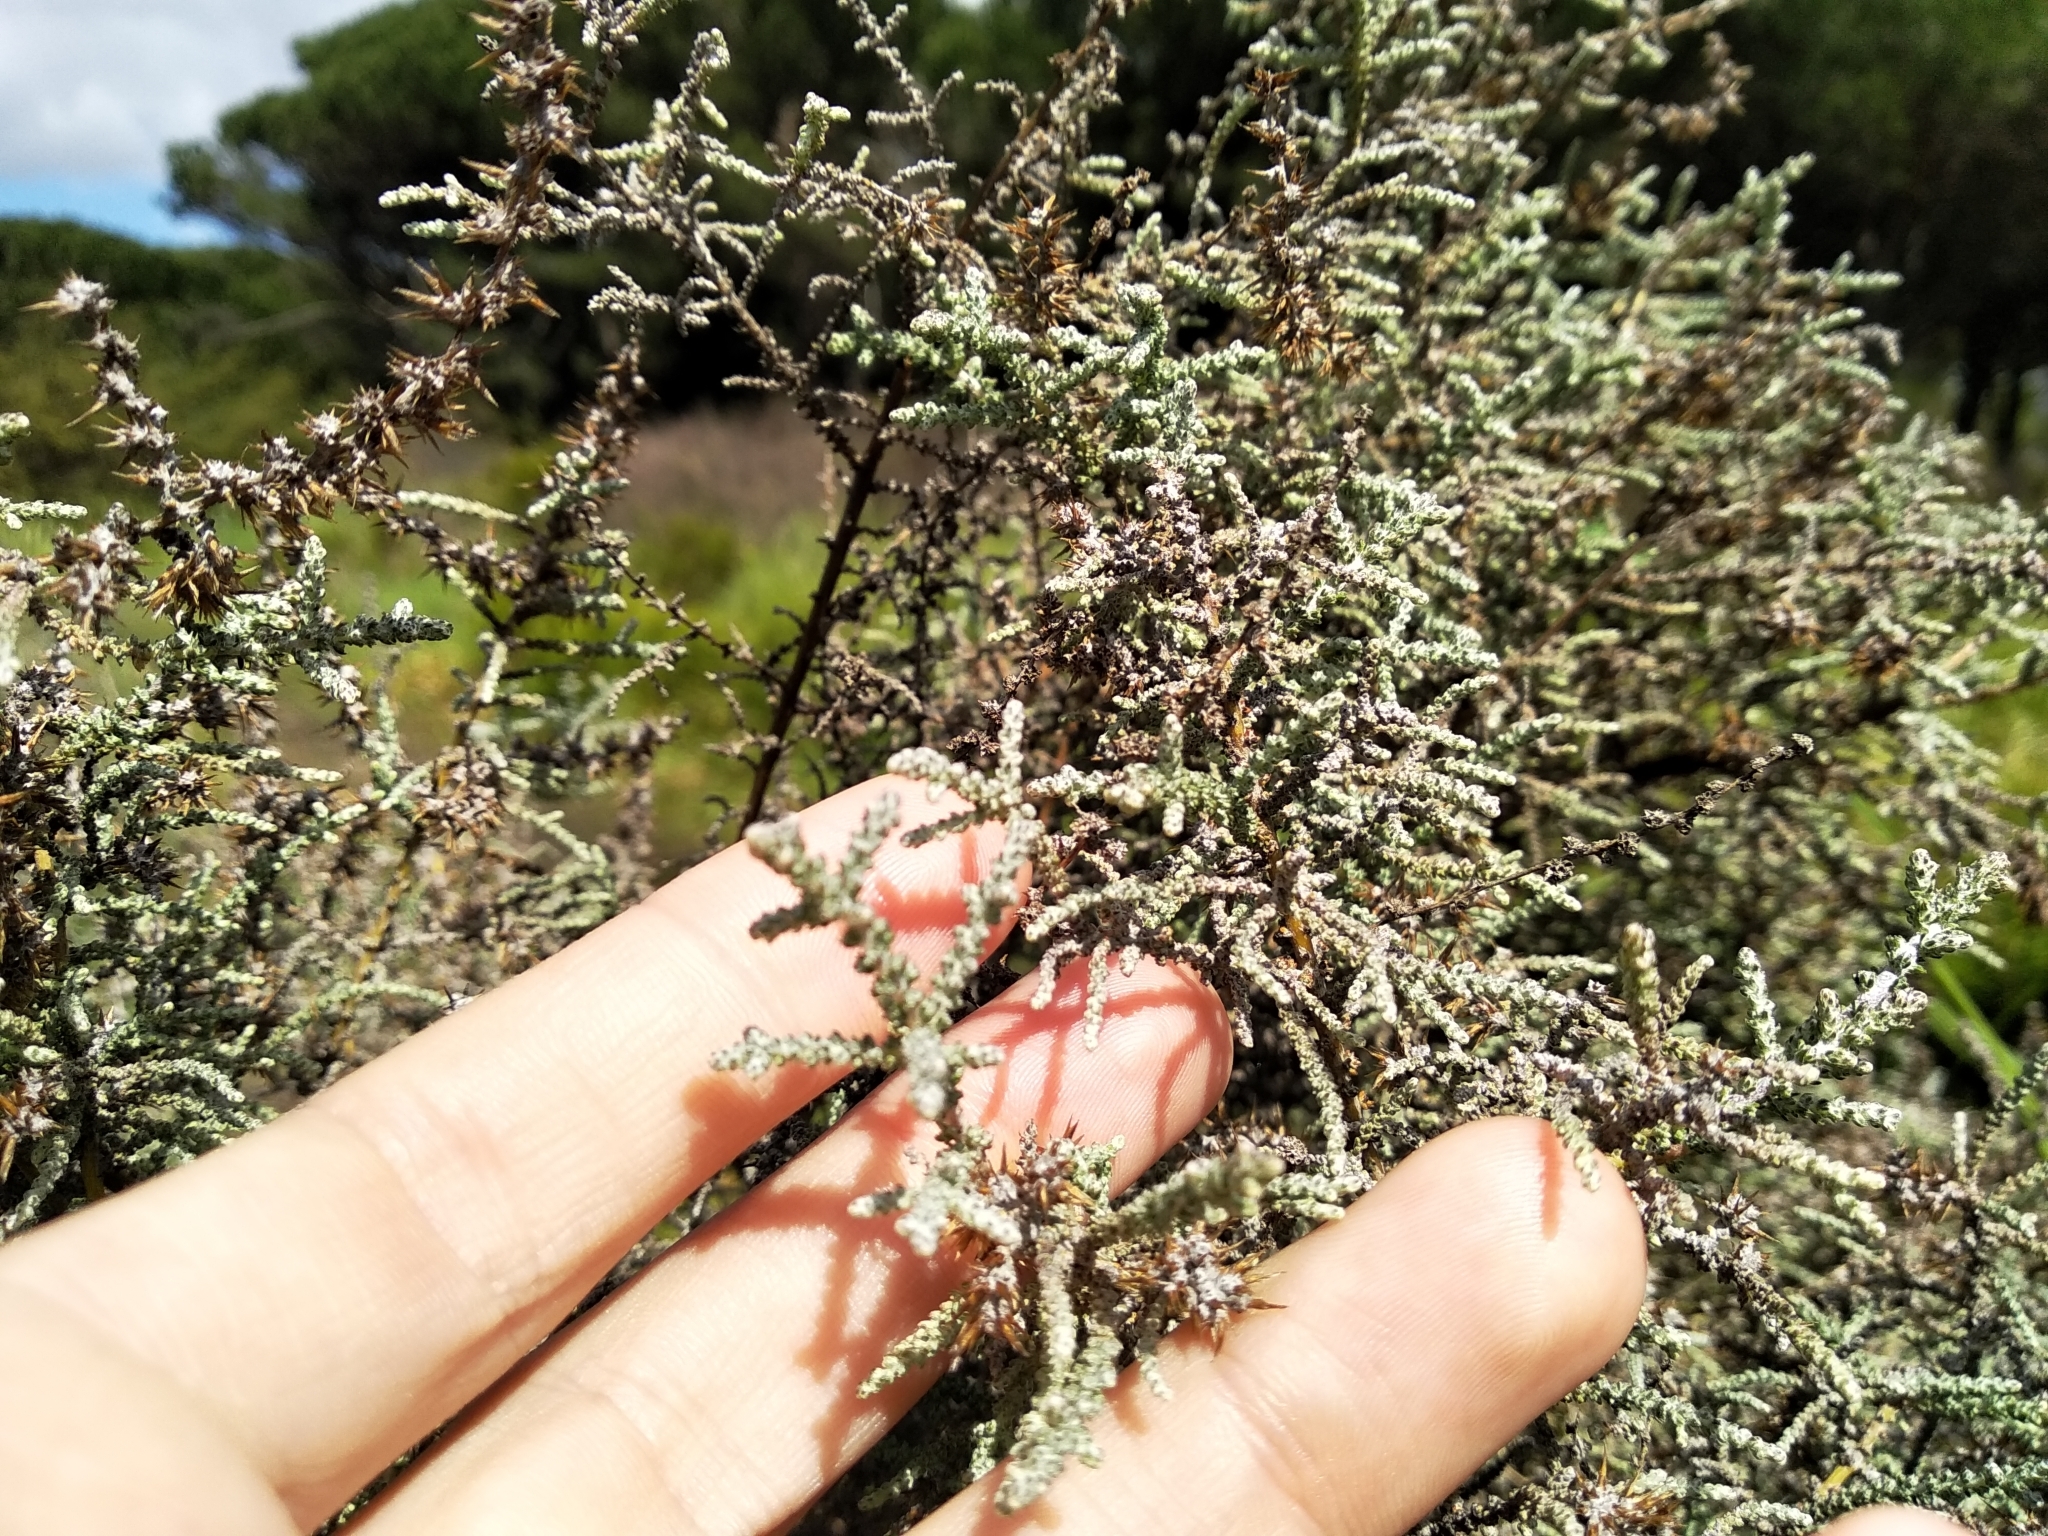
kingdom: Plantae
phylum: Tracheophyta
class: Magnoliopsida
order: Asterales
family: Asteraceae
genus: Seriphium
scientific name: Seriphium plumosum
